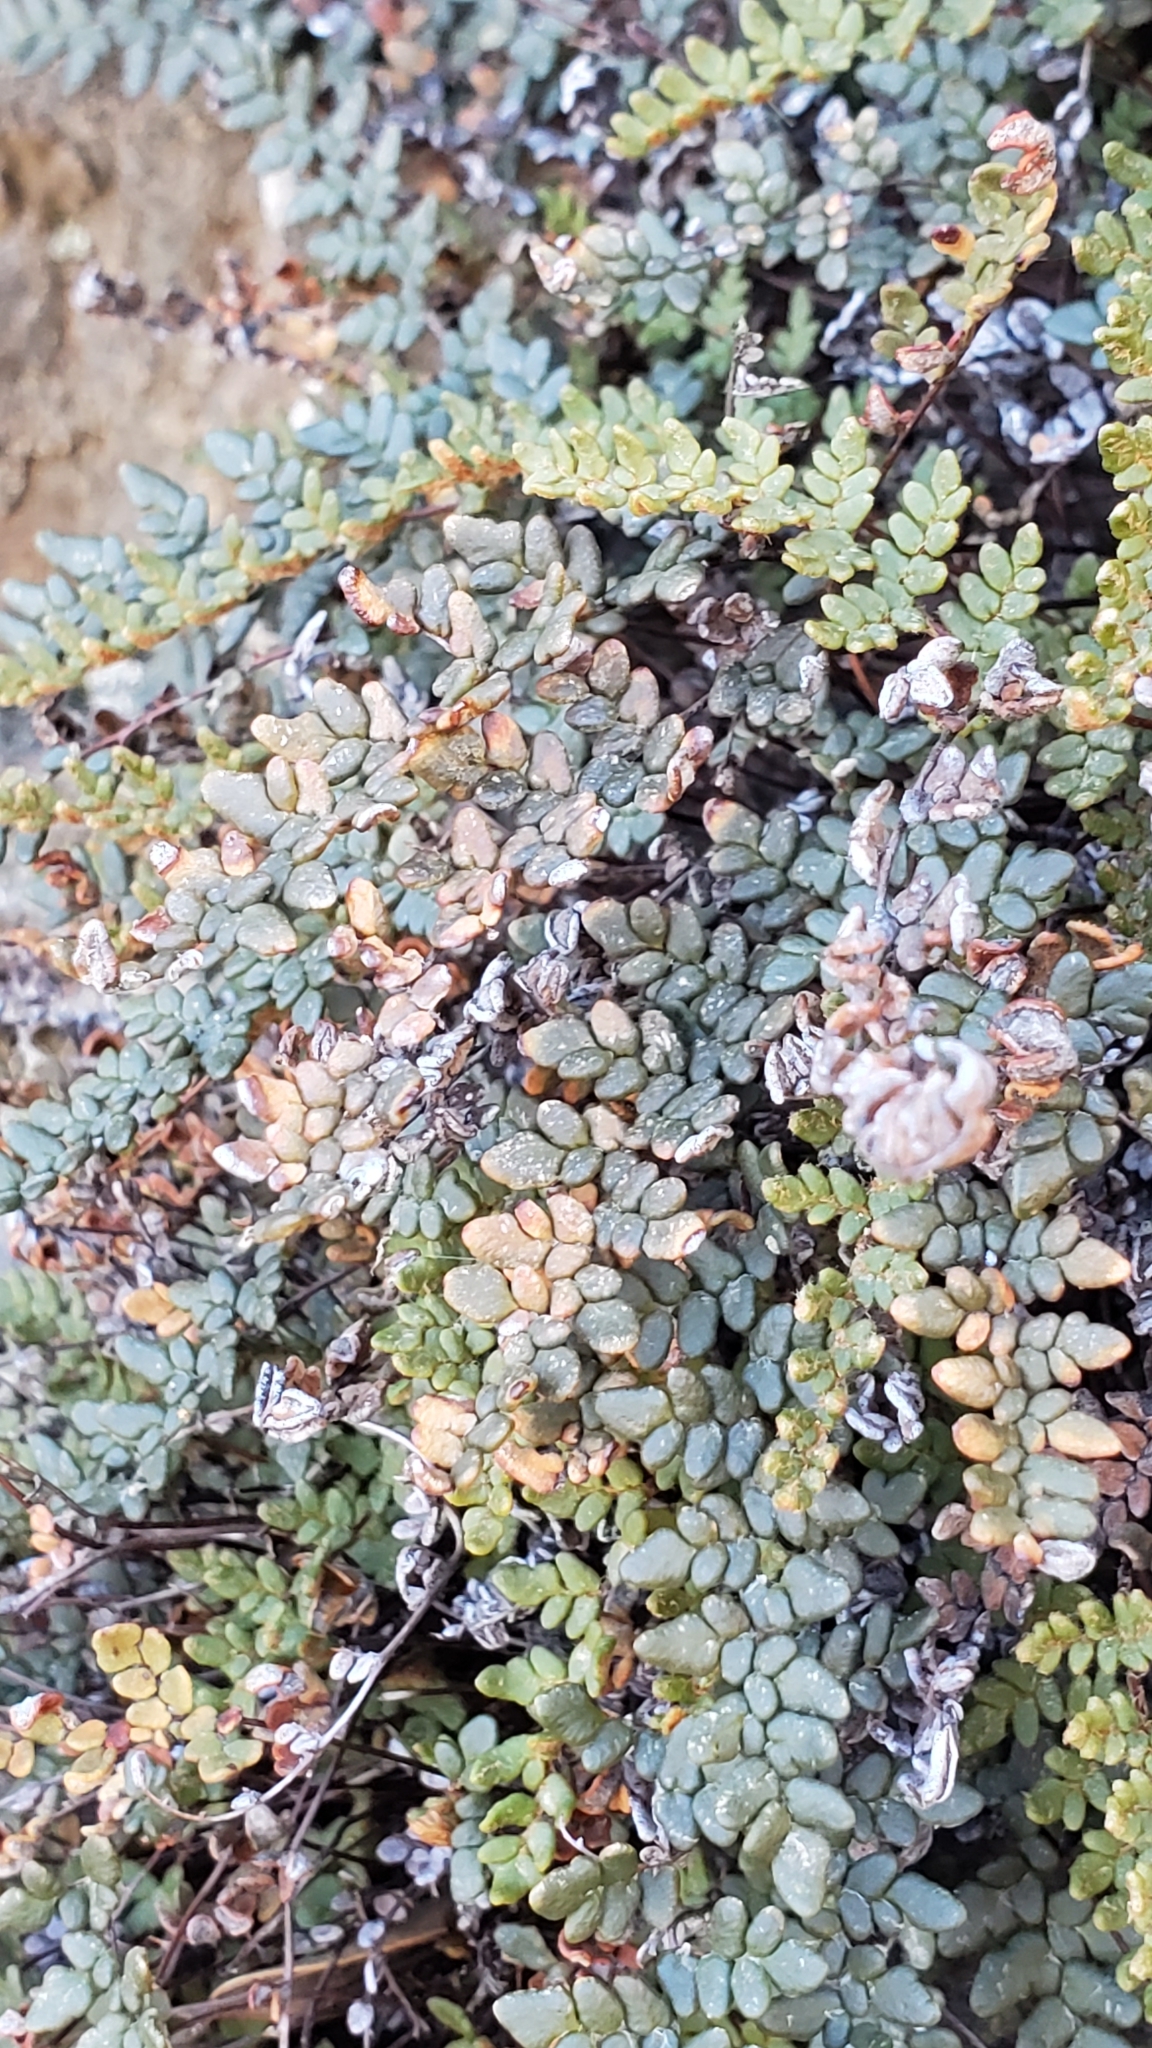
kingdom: Plantae
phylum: Tracheophyta
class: Polypodiopsida
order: Polypodiales
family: Pteridaceae
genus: Myriopteris
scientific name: Myriopteris gracillima
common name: Lace fern
